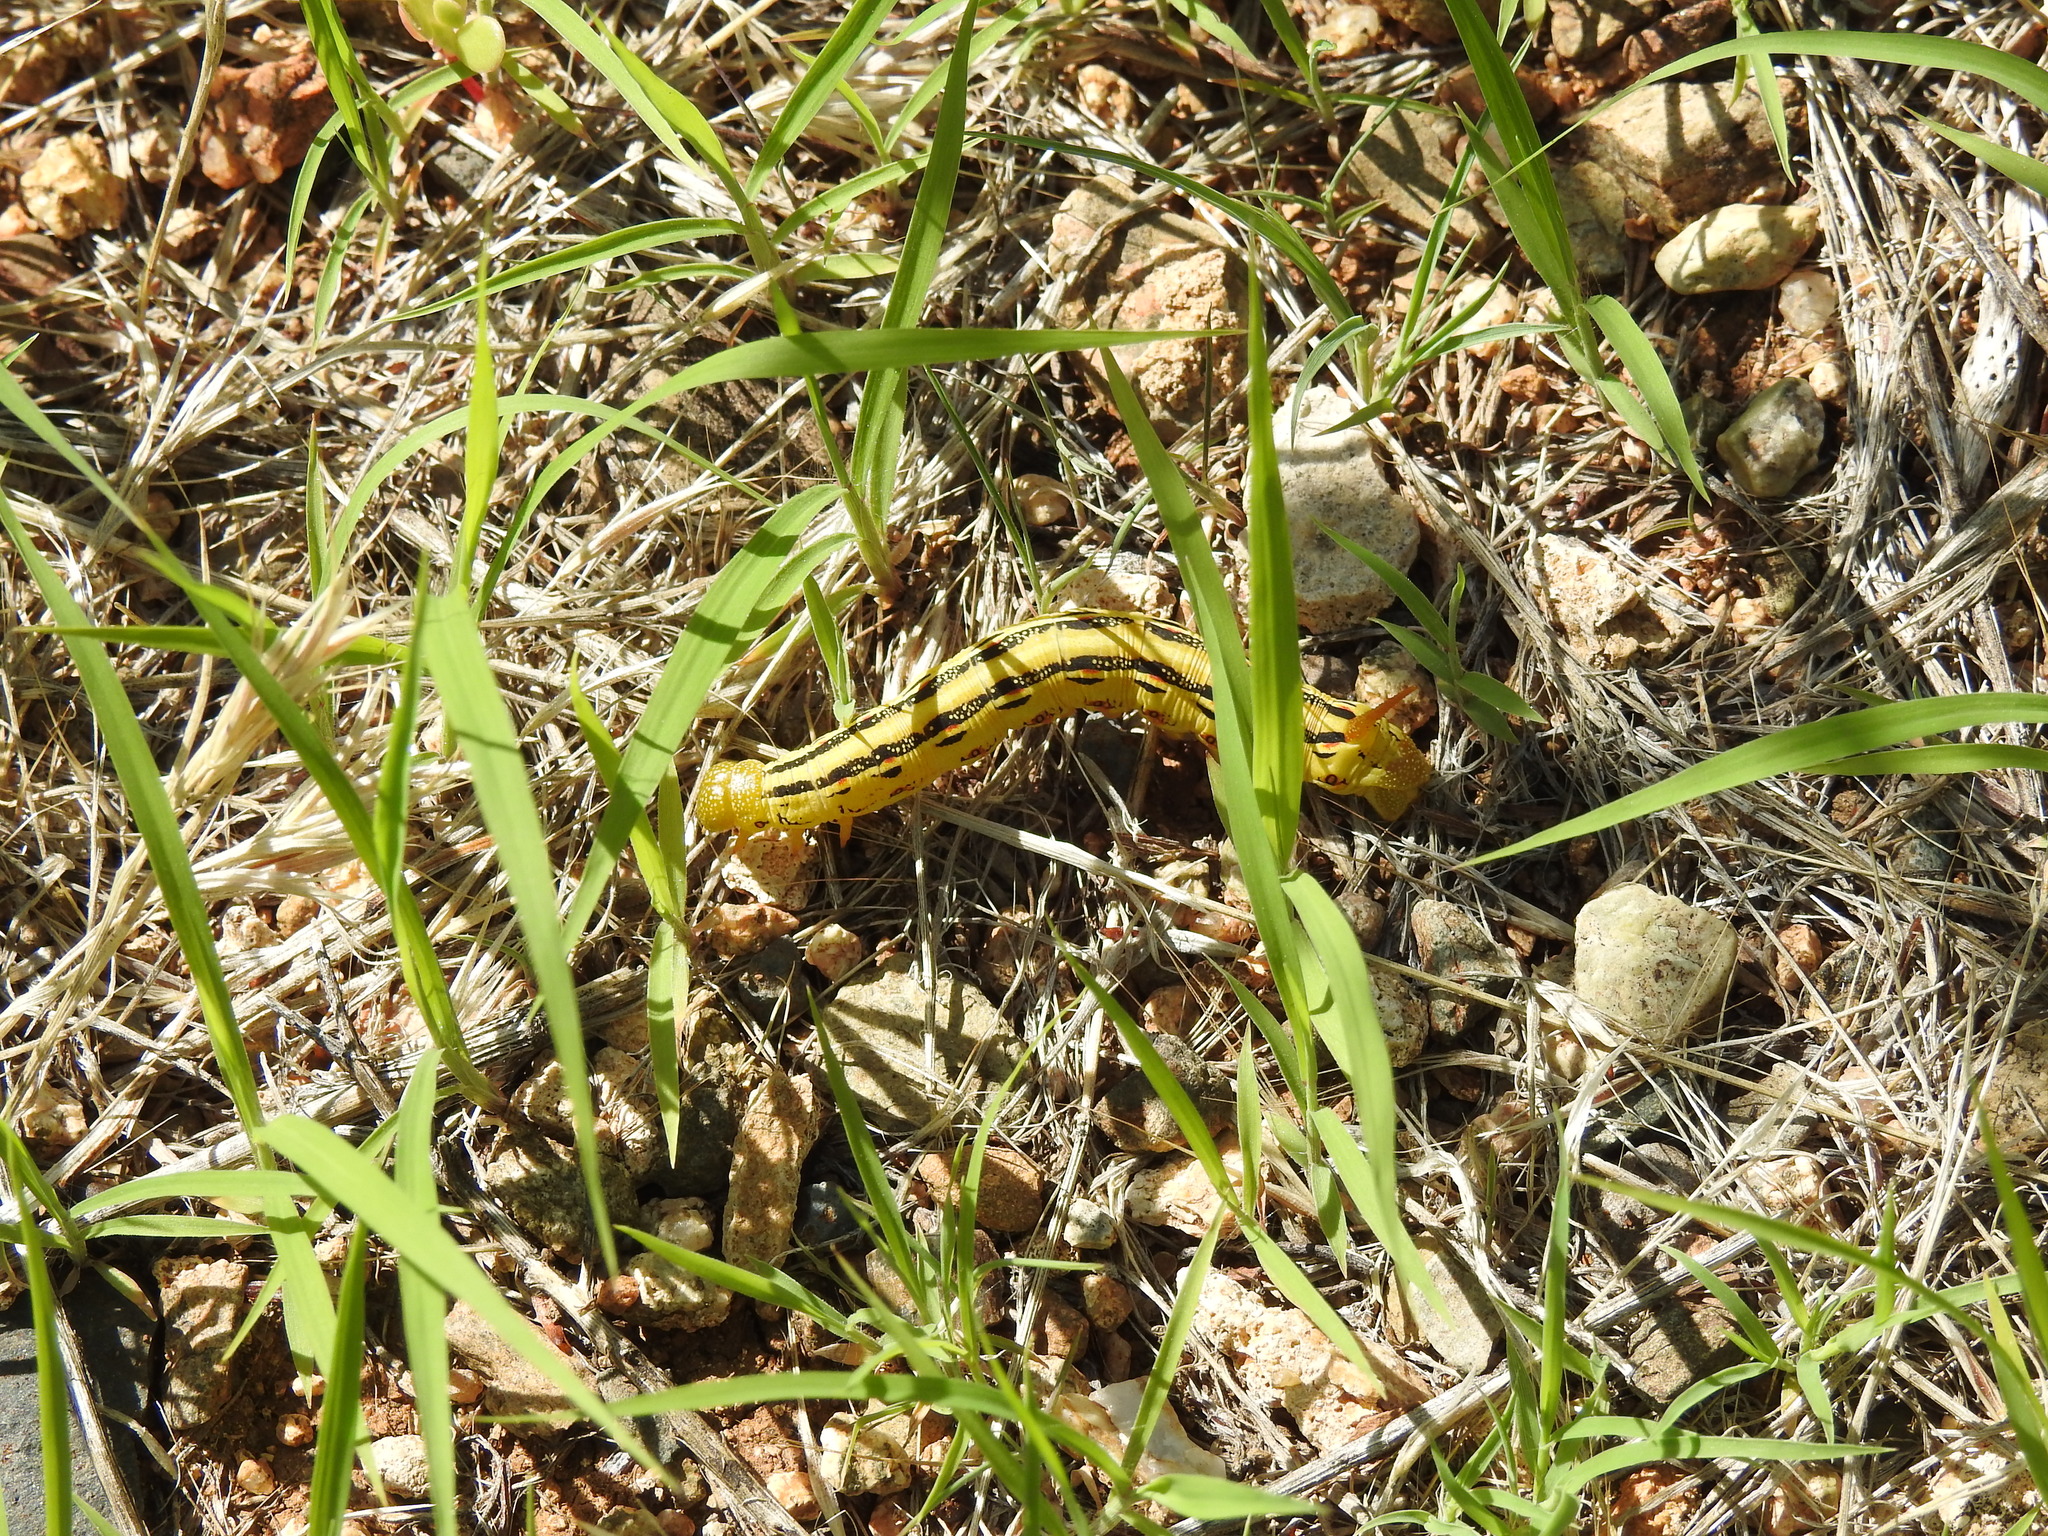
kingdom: Animalia
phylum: Arthropoda
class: Insecta
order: Lepidoptera
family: Sphingidae
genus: Hyles
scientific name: Hyles lineata
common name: White-lined sphinx
